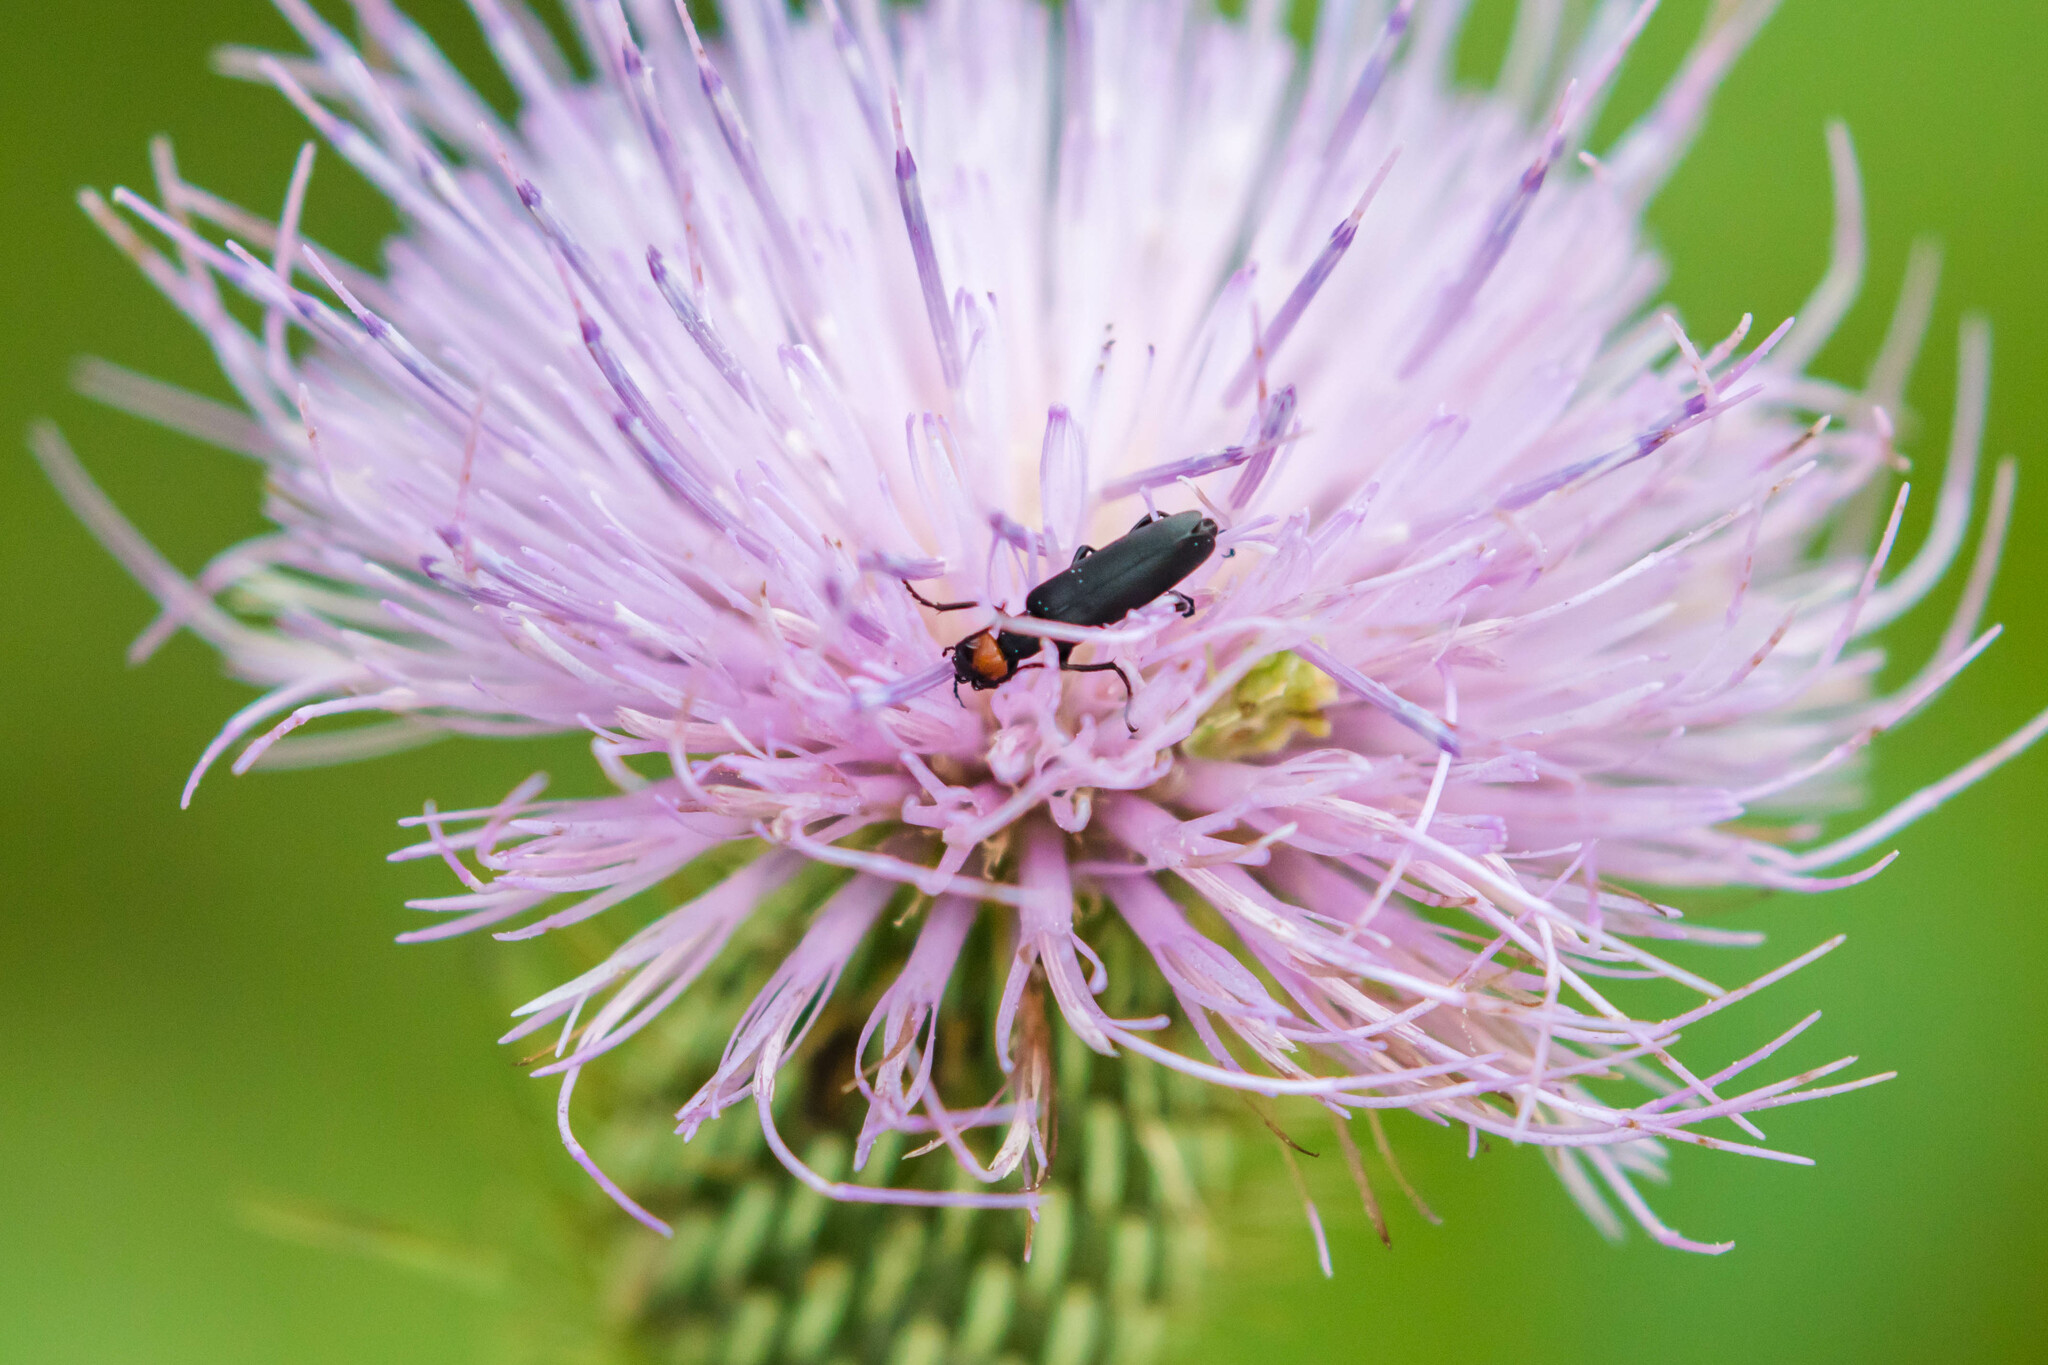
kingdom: Animalia
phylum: Arthropoda
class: Insecta
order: Coleoptera
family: Meloidae
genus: Epicauta
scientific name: Epicauta atrata
